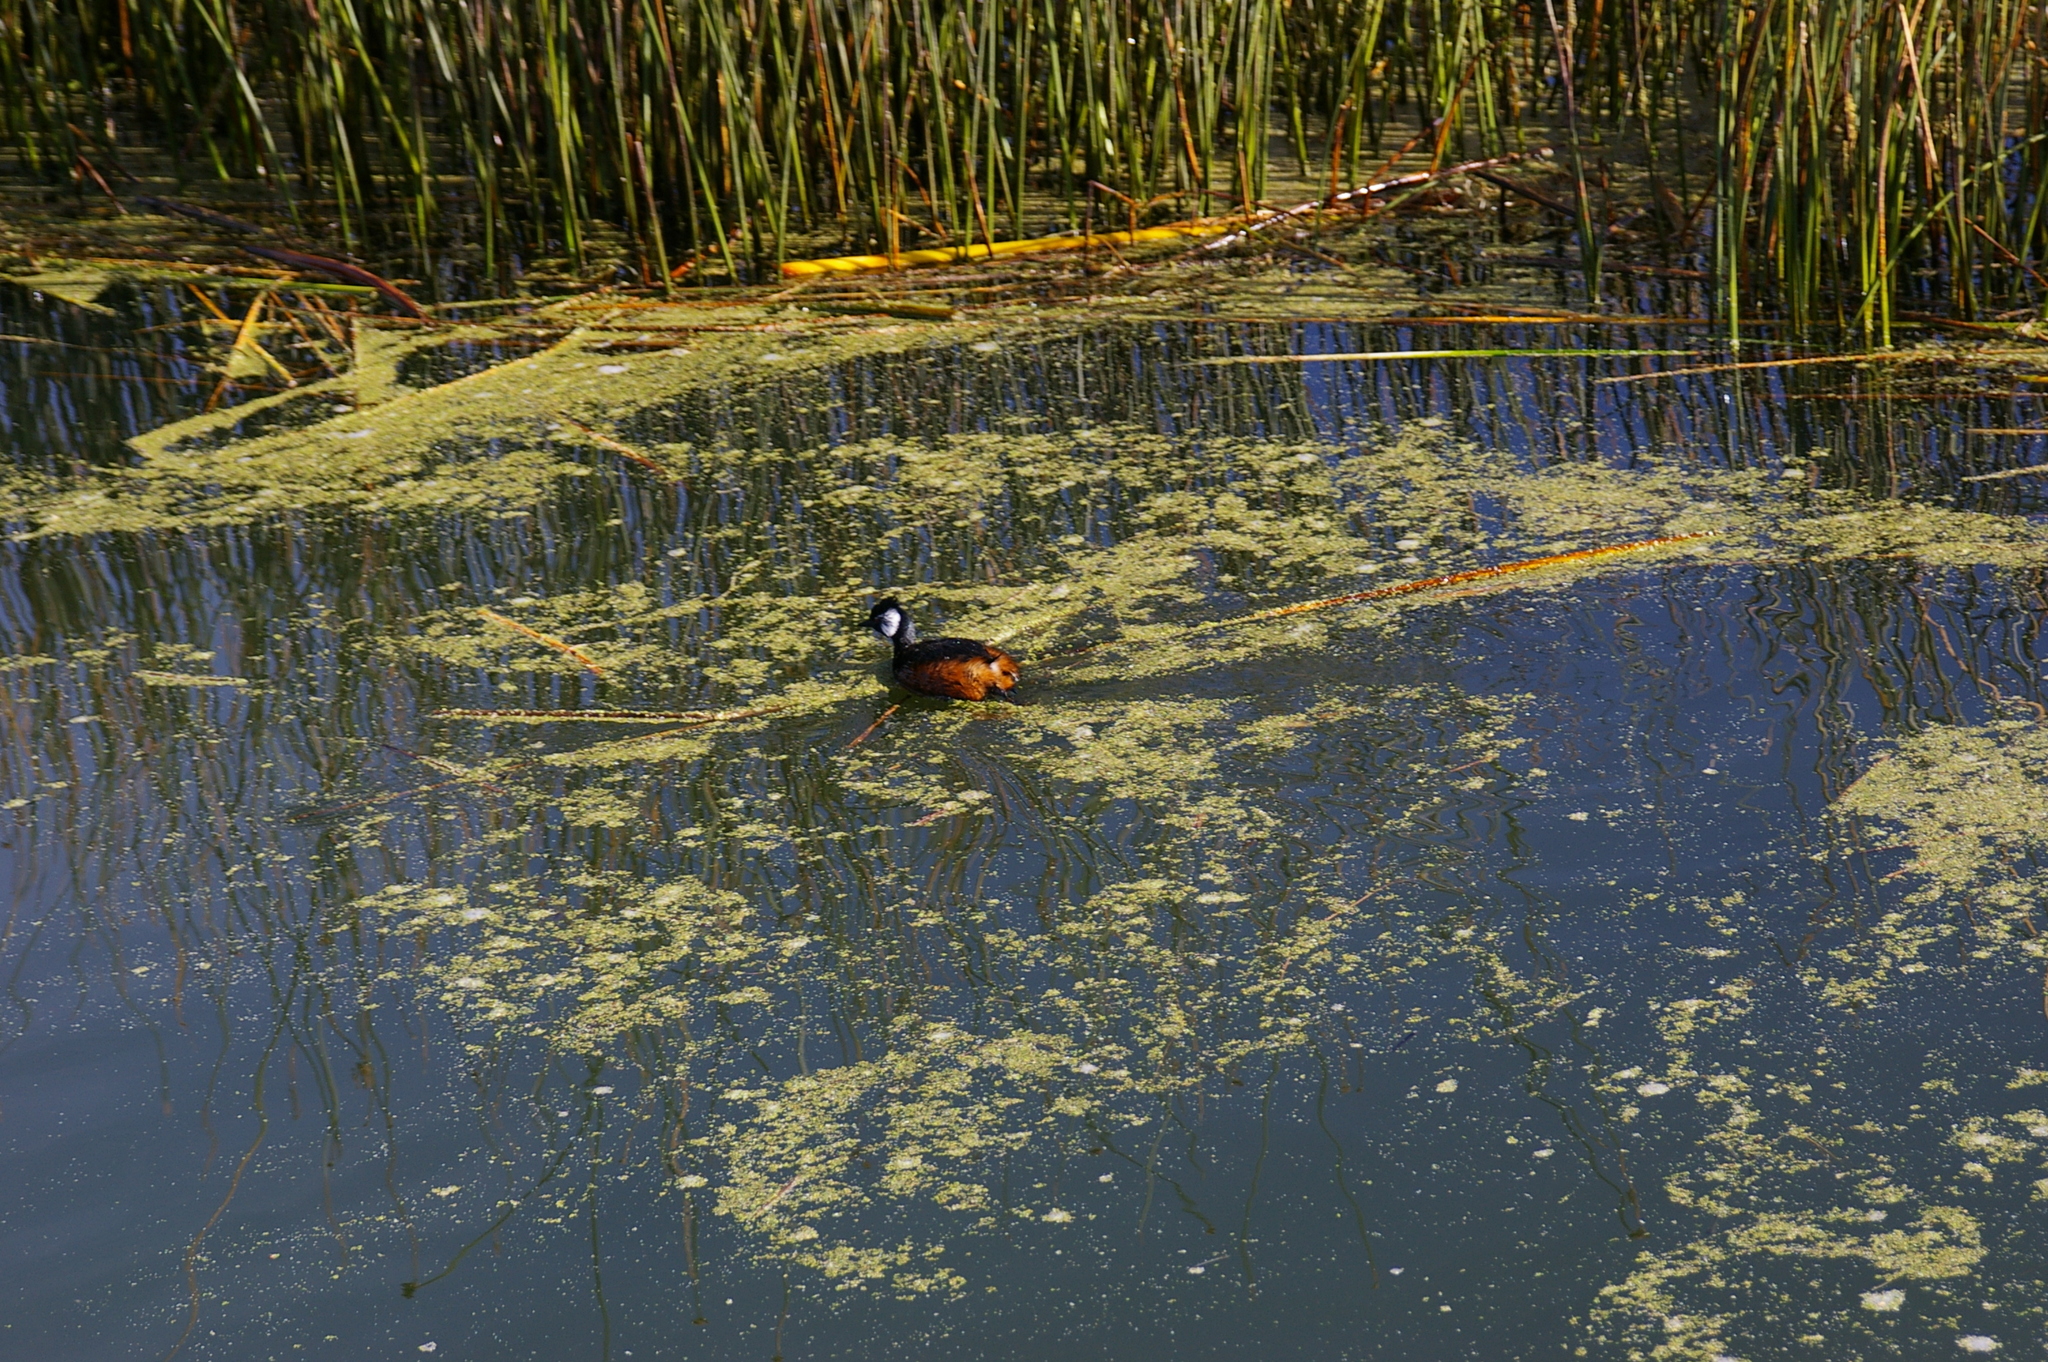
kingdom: Animalia
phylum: Chordata
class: Aves
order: Podicipediformes
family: Podicipedidae
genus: Rollandia
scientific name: Rollandia rolland
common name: White-tufted grebe
